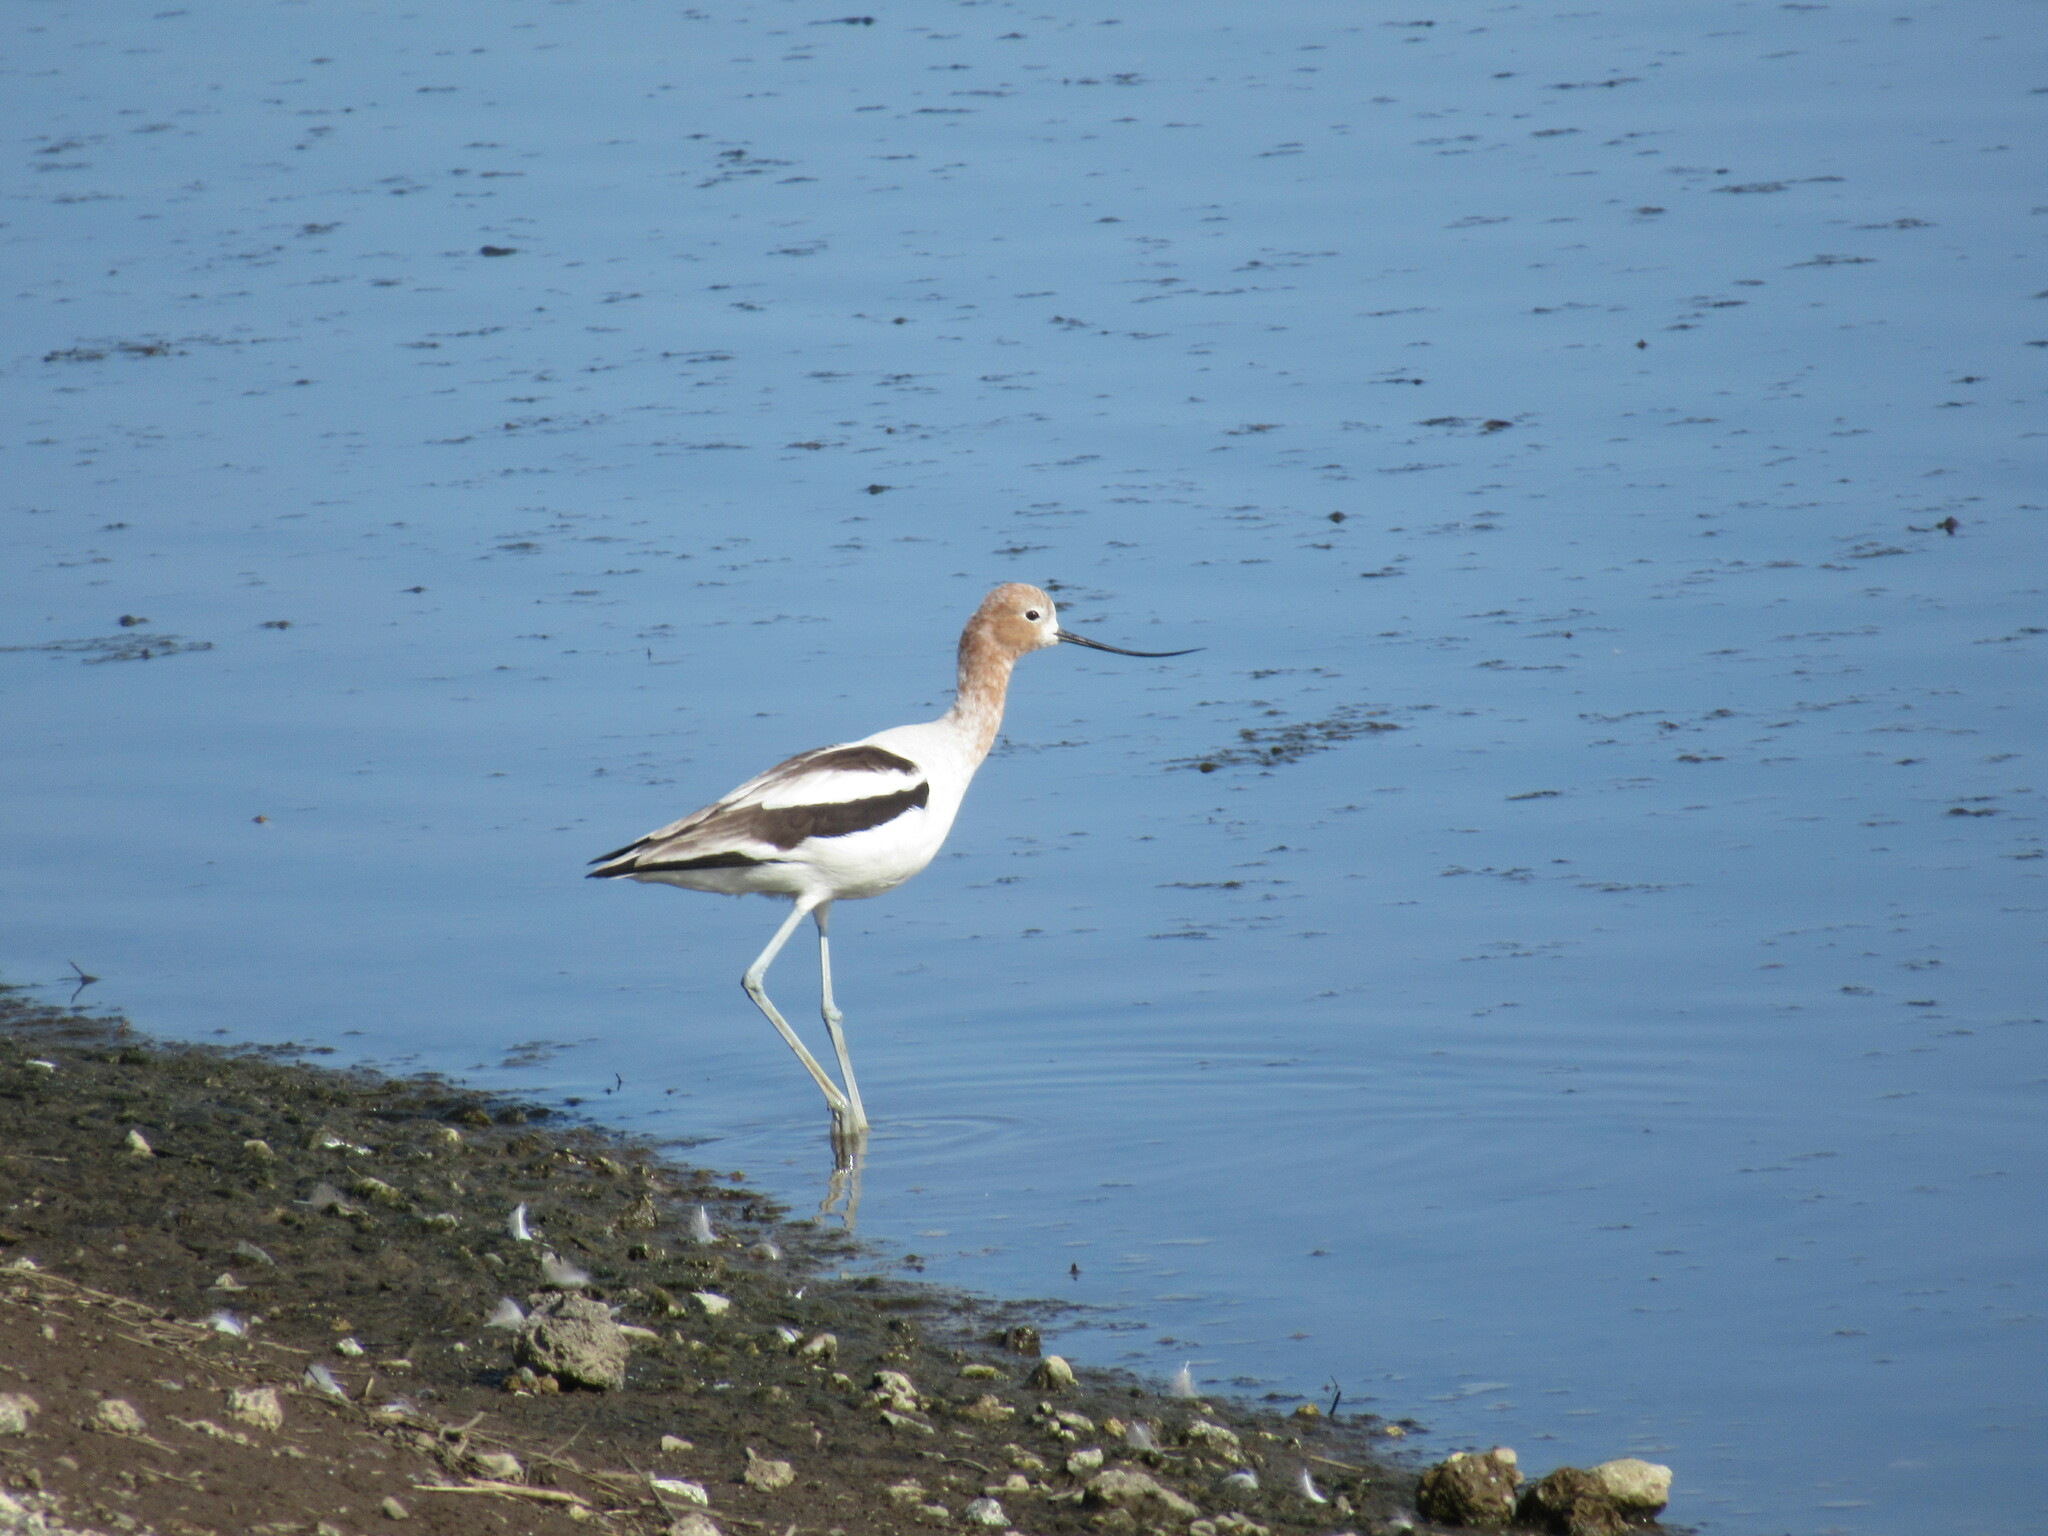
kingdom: Animalia
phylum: Chordata
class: Aves
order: Charadriiformes
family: Recurvirostridae
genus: Recurvirostra
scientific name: Recurvirostra americana
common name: American avocet
